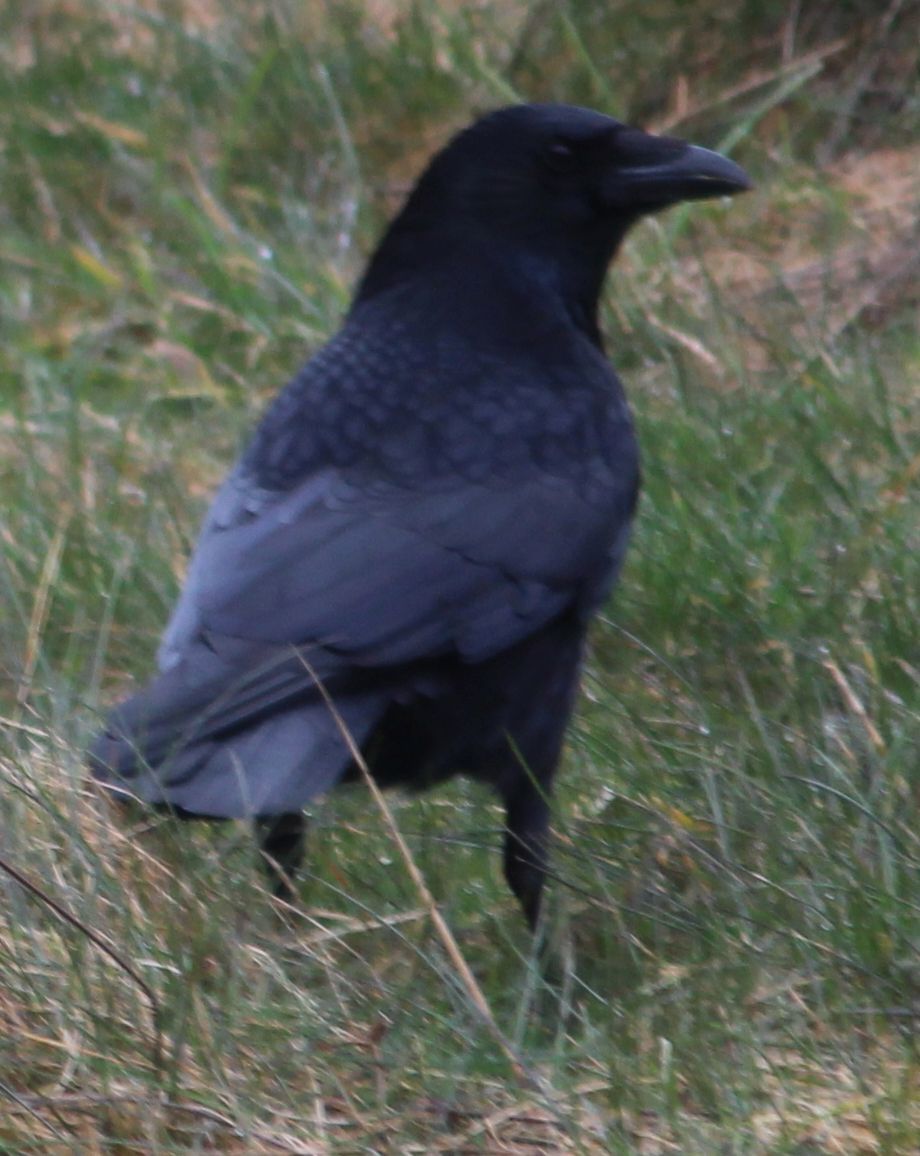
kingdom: Animalia
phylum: Chordata
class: Aves
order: Passeriformes
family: Corvidae
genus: Corvus
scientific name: Corvus corone
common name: Carrion crow
